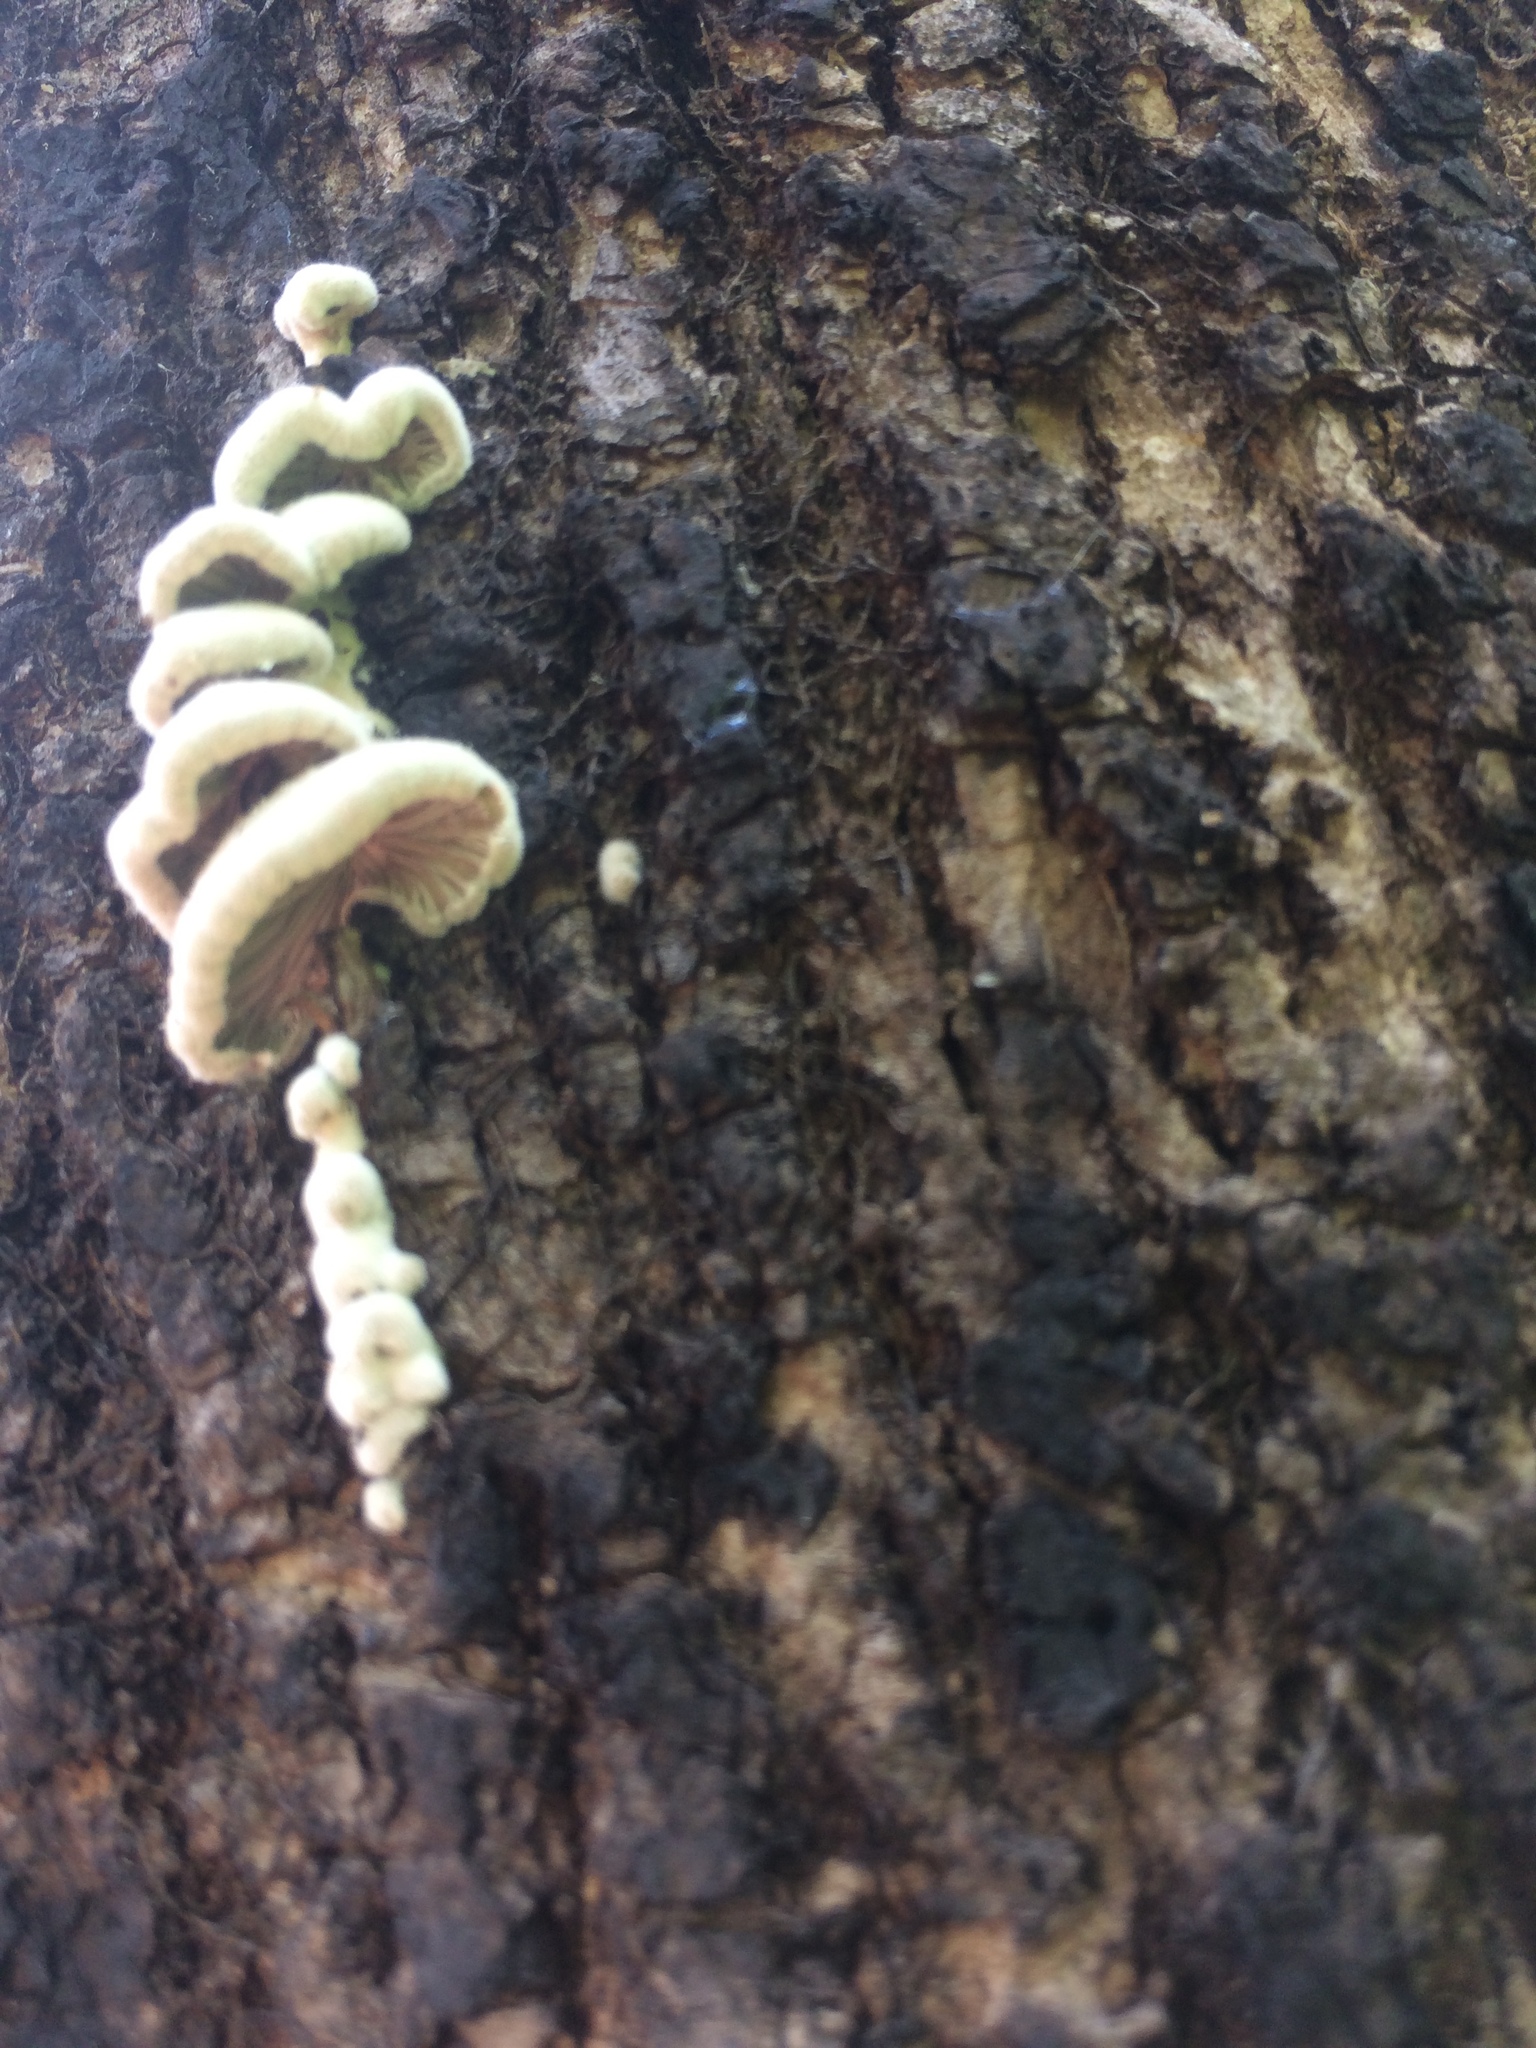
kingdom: Fungi
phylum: Basidiomycota
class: Agaricomycetes
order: Agaricales
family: Schizophyllaceae
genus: Schizophyllum
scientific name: Schizophyllum commune
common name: Common porecrust
